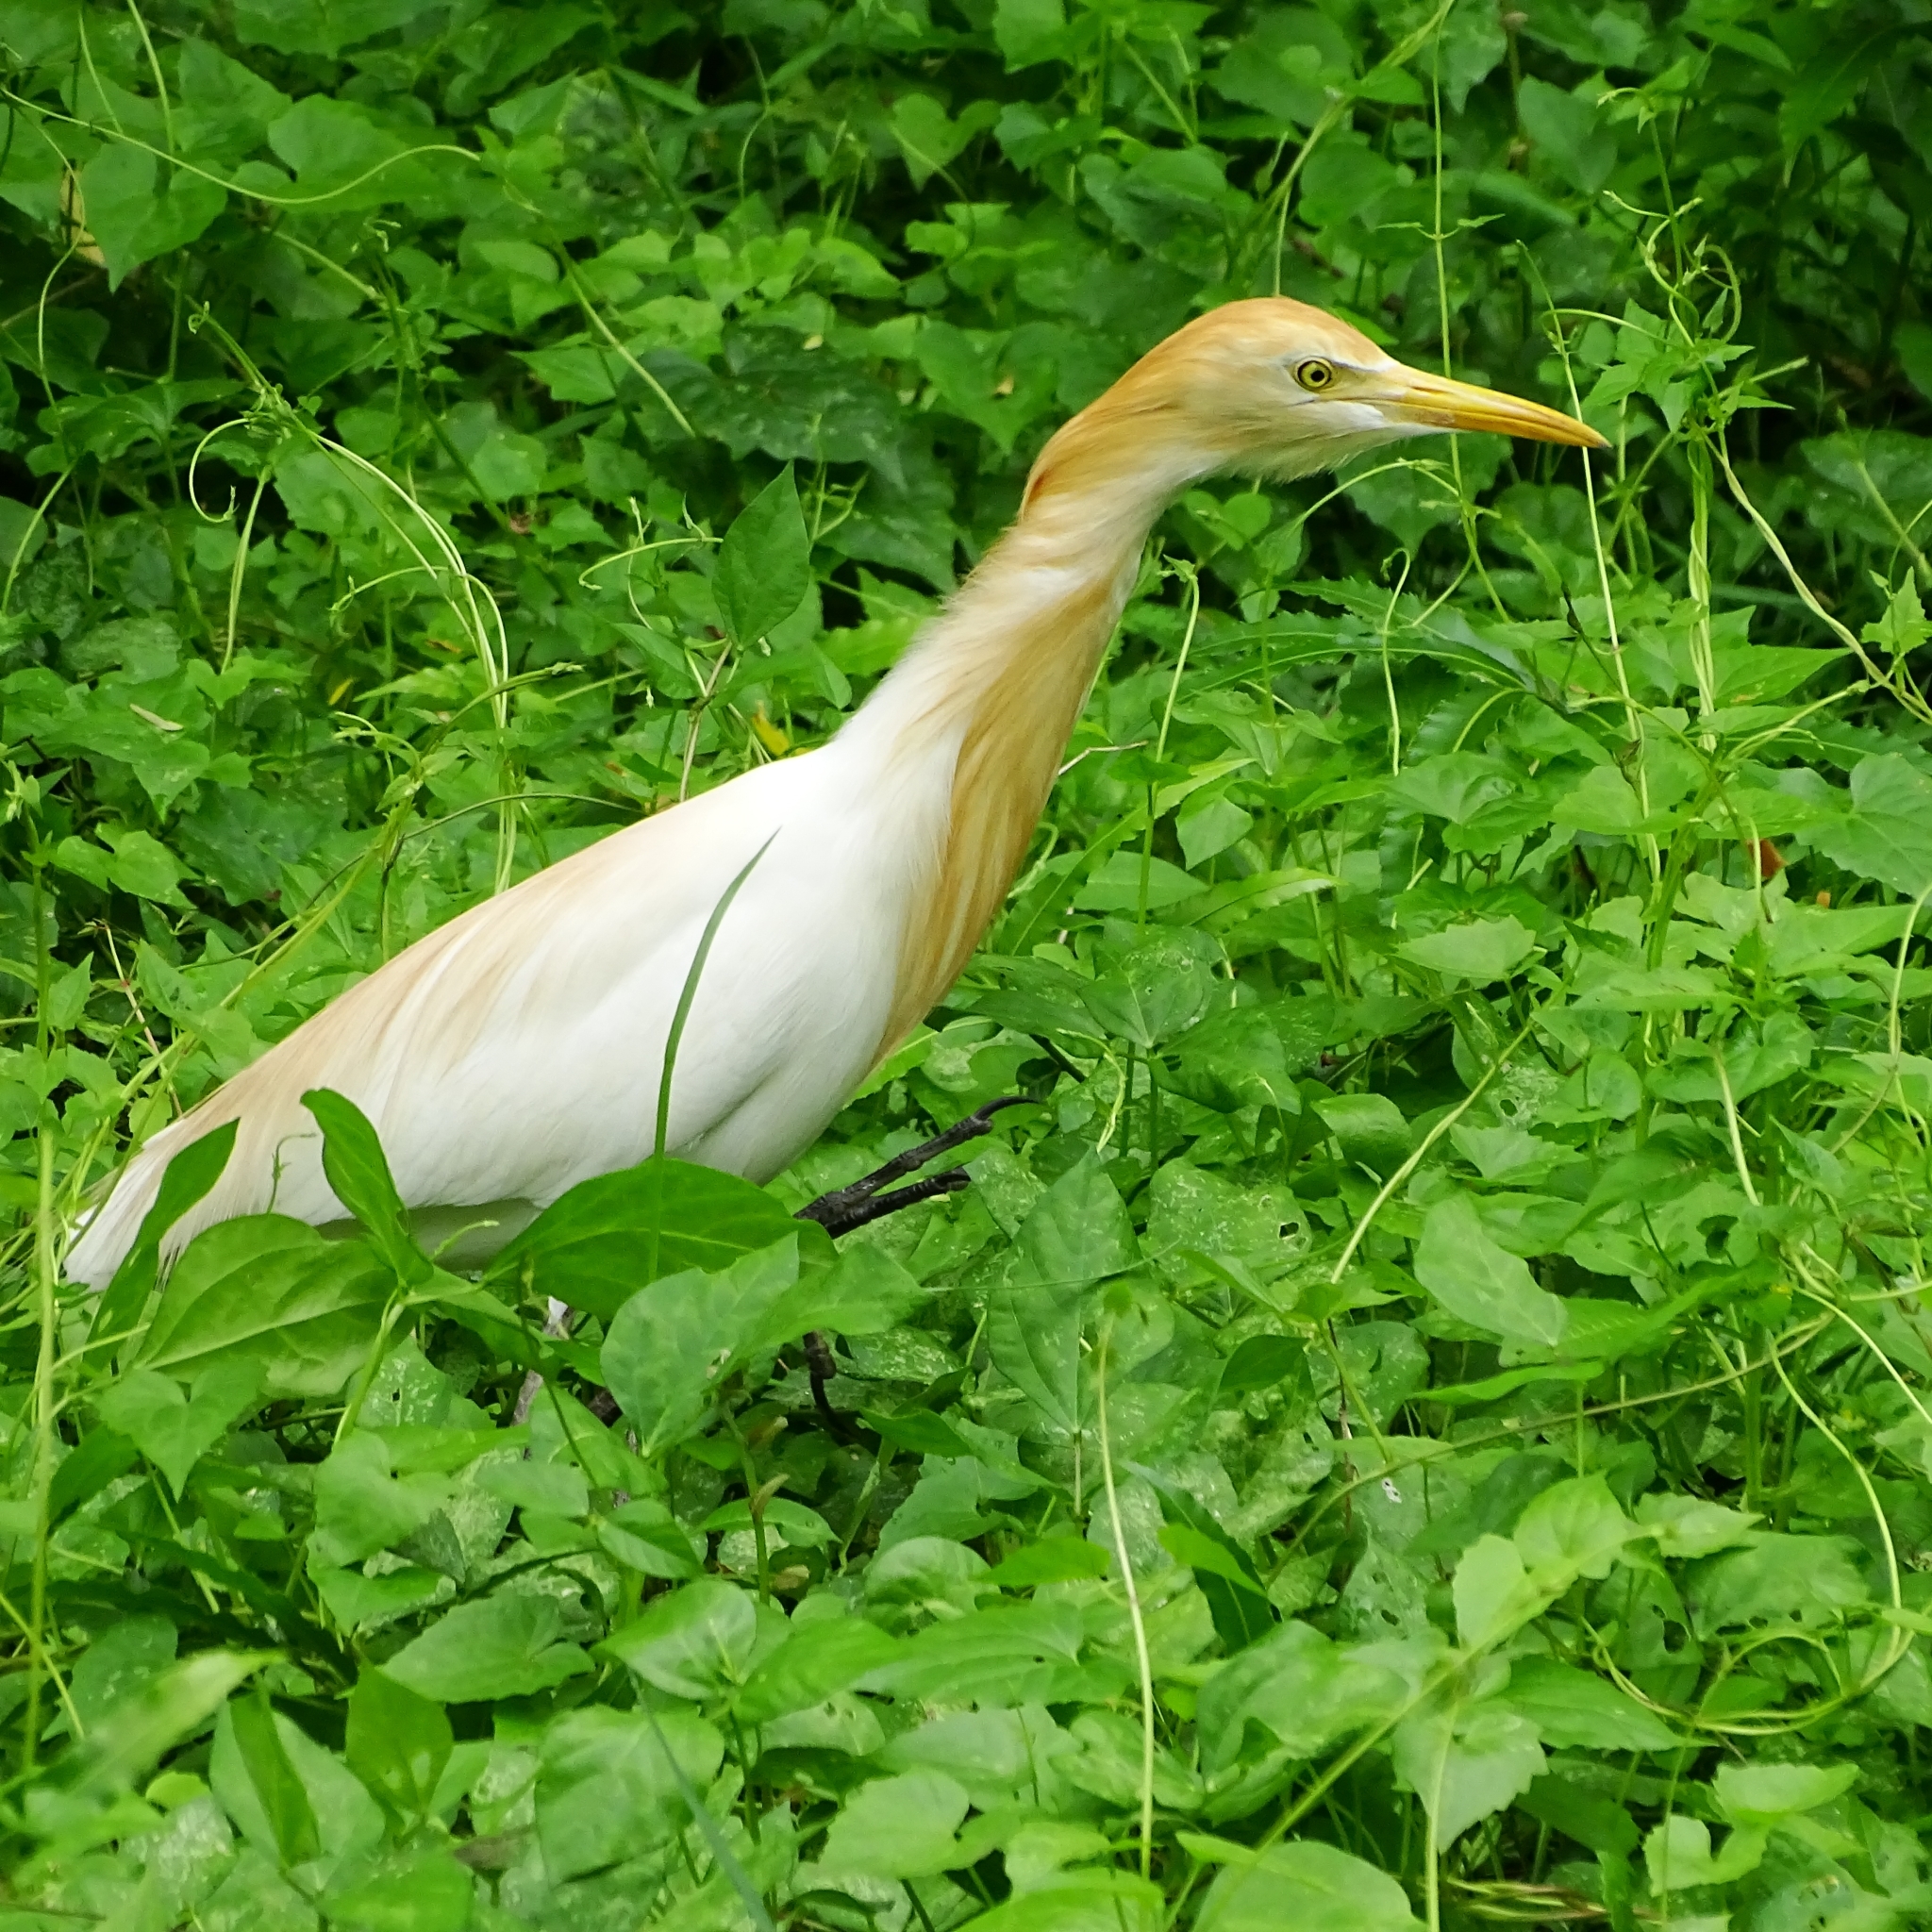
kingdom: Animalia
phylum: Chordata
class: Aves
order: Pelecaniformes
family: Ardeidae
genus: Bubulcus
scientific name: Bubulcus coromandus
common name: Eastern cattle egret
